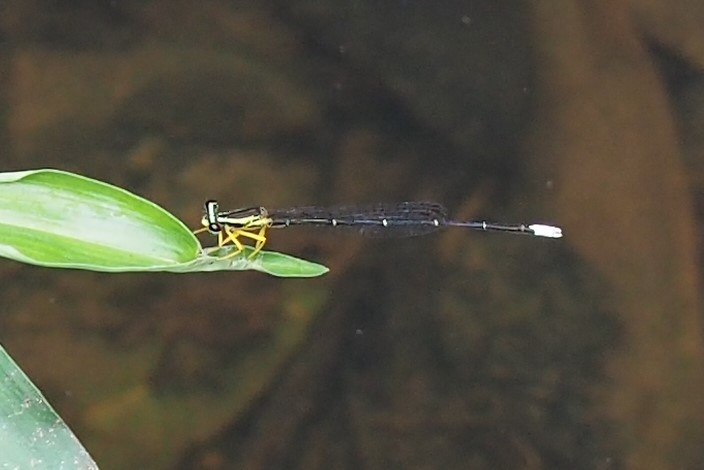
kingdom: Animalia
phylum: Arthropoda
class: Insecta
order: Odonata
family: Platycnemididae
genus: Copera
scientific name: Copera marginipes
